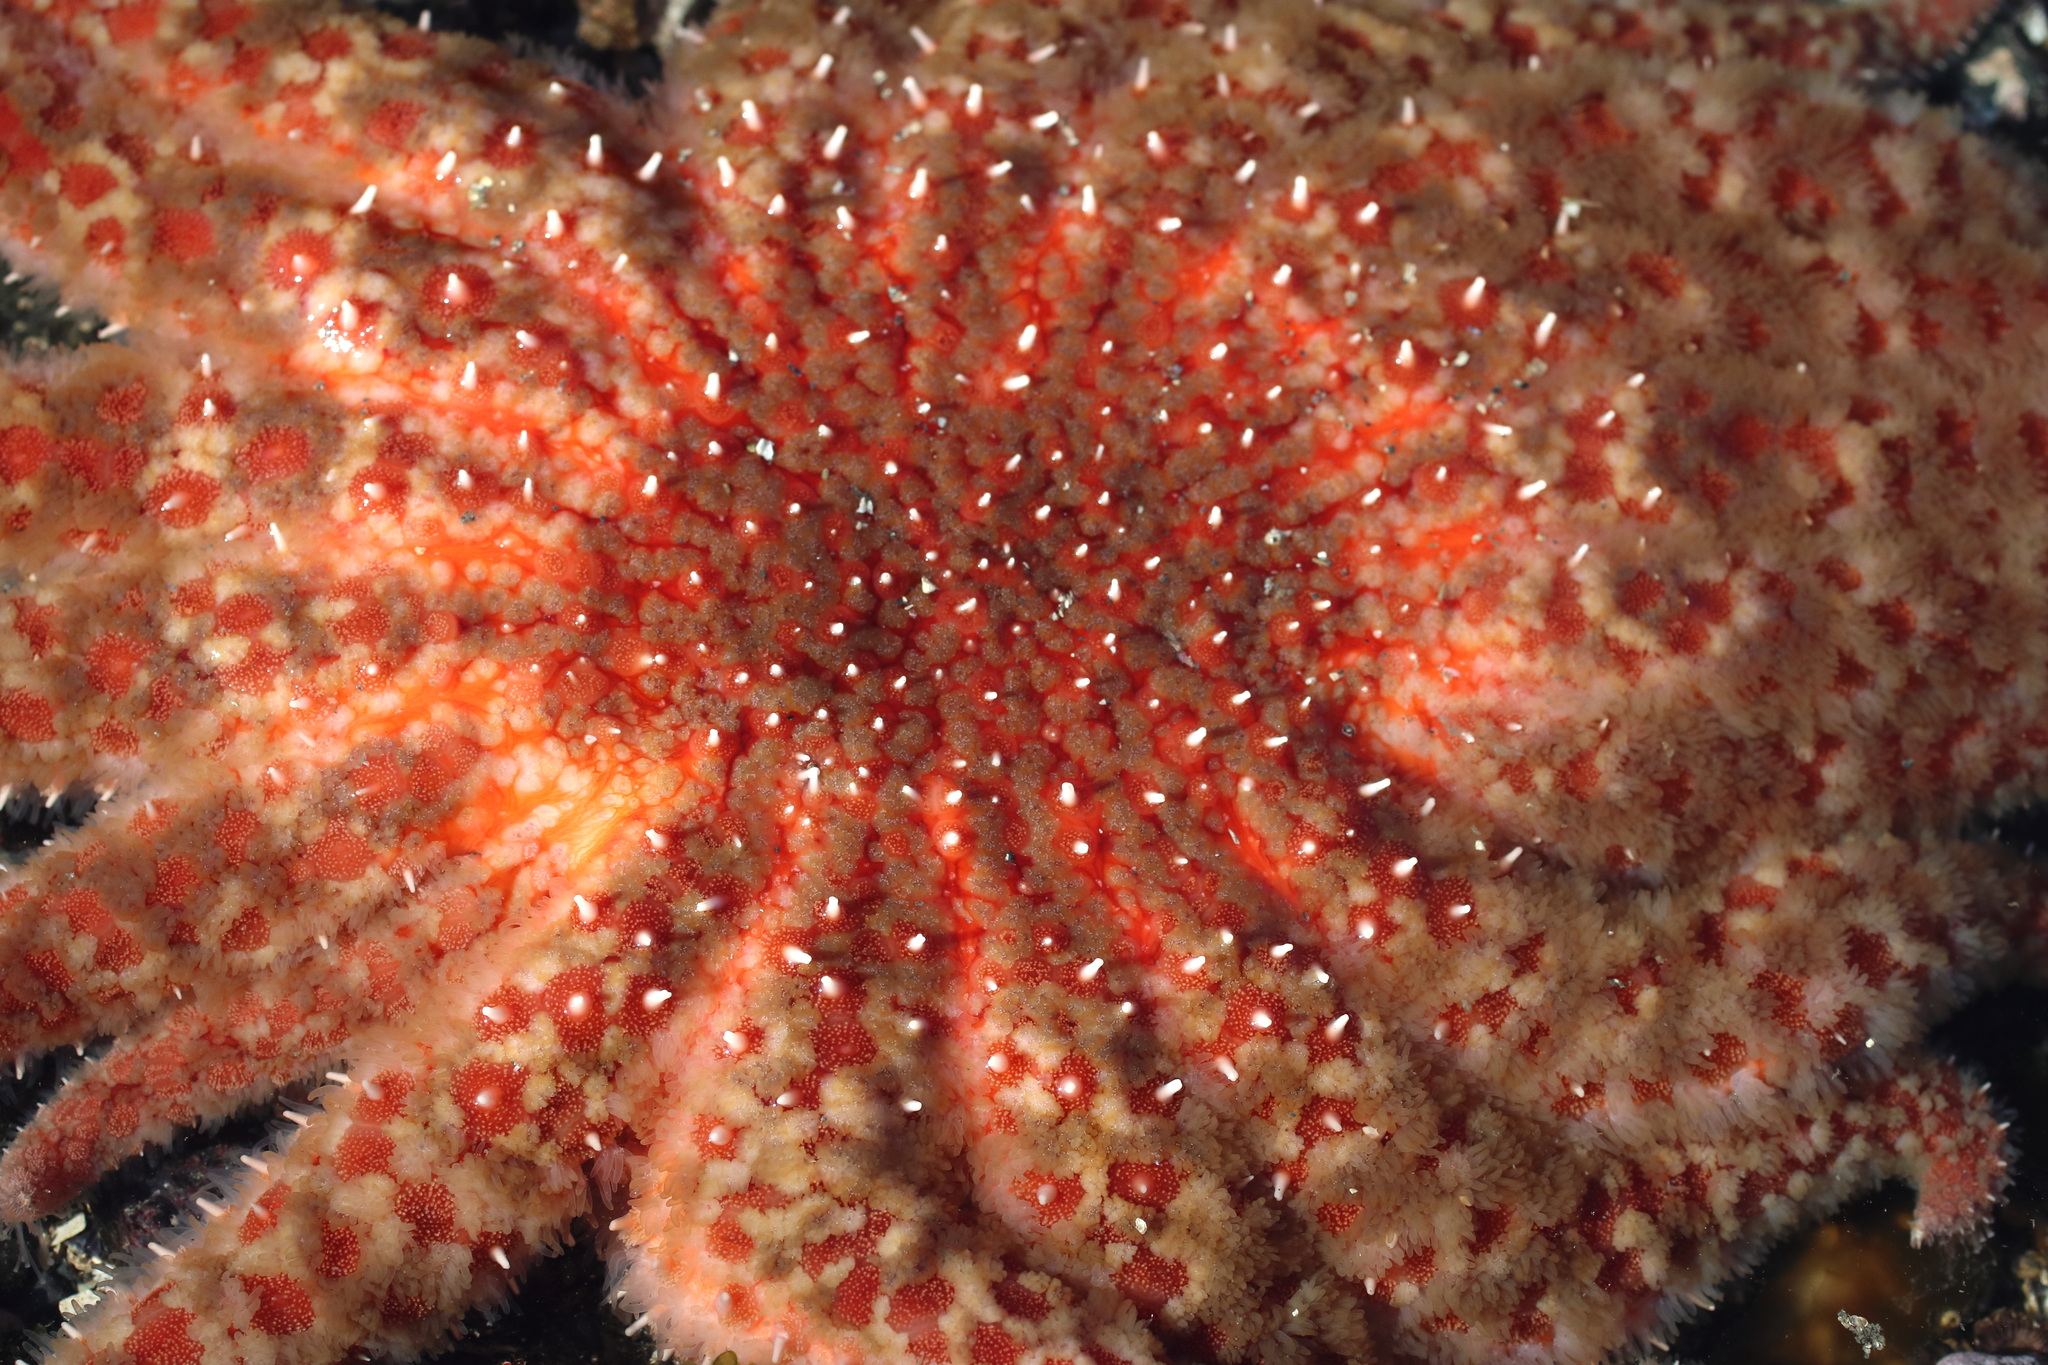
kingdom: Animalia
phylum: Echinodermata
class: Asteroidea
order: Forcipulatida
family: Asteriidae
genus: Pycnopodia
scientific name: Pycnopodia helianthoides
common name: Rag mop
